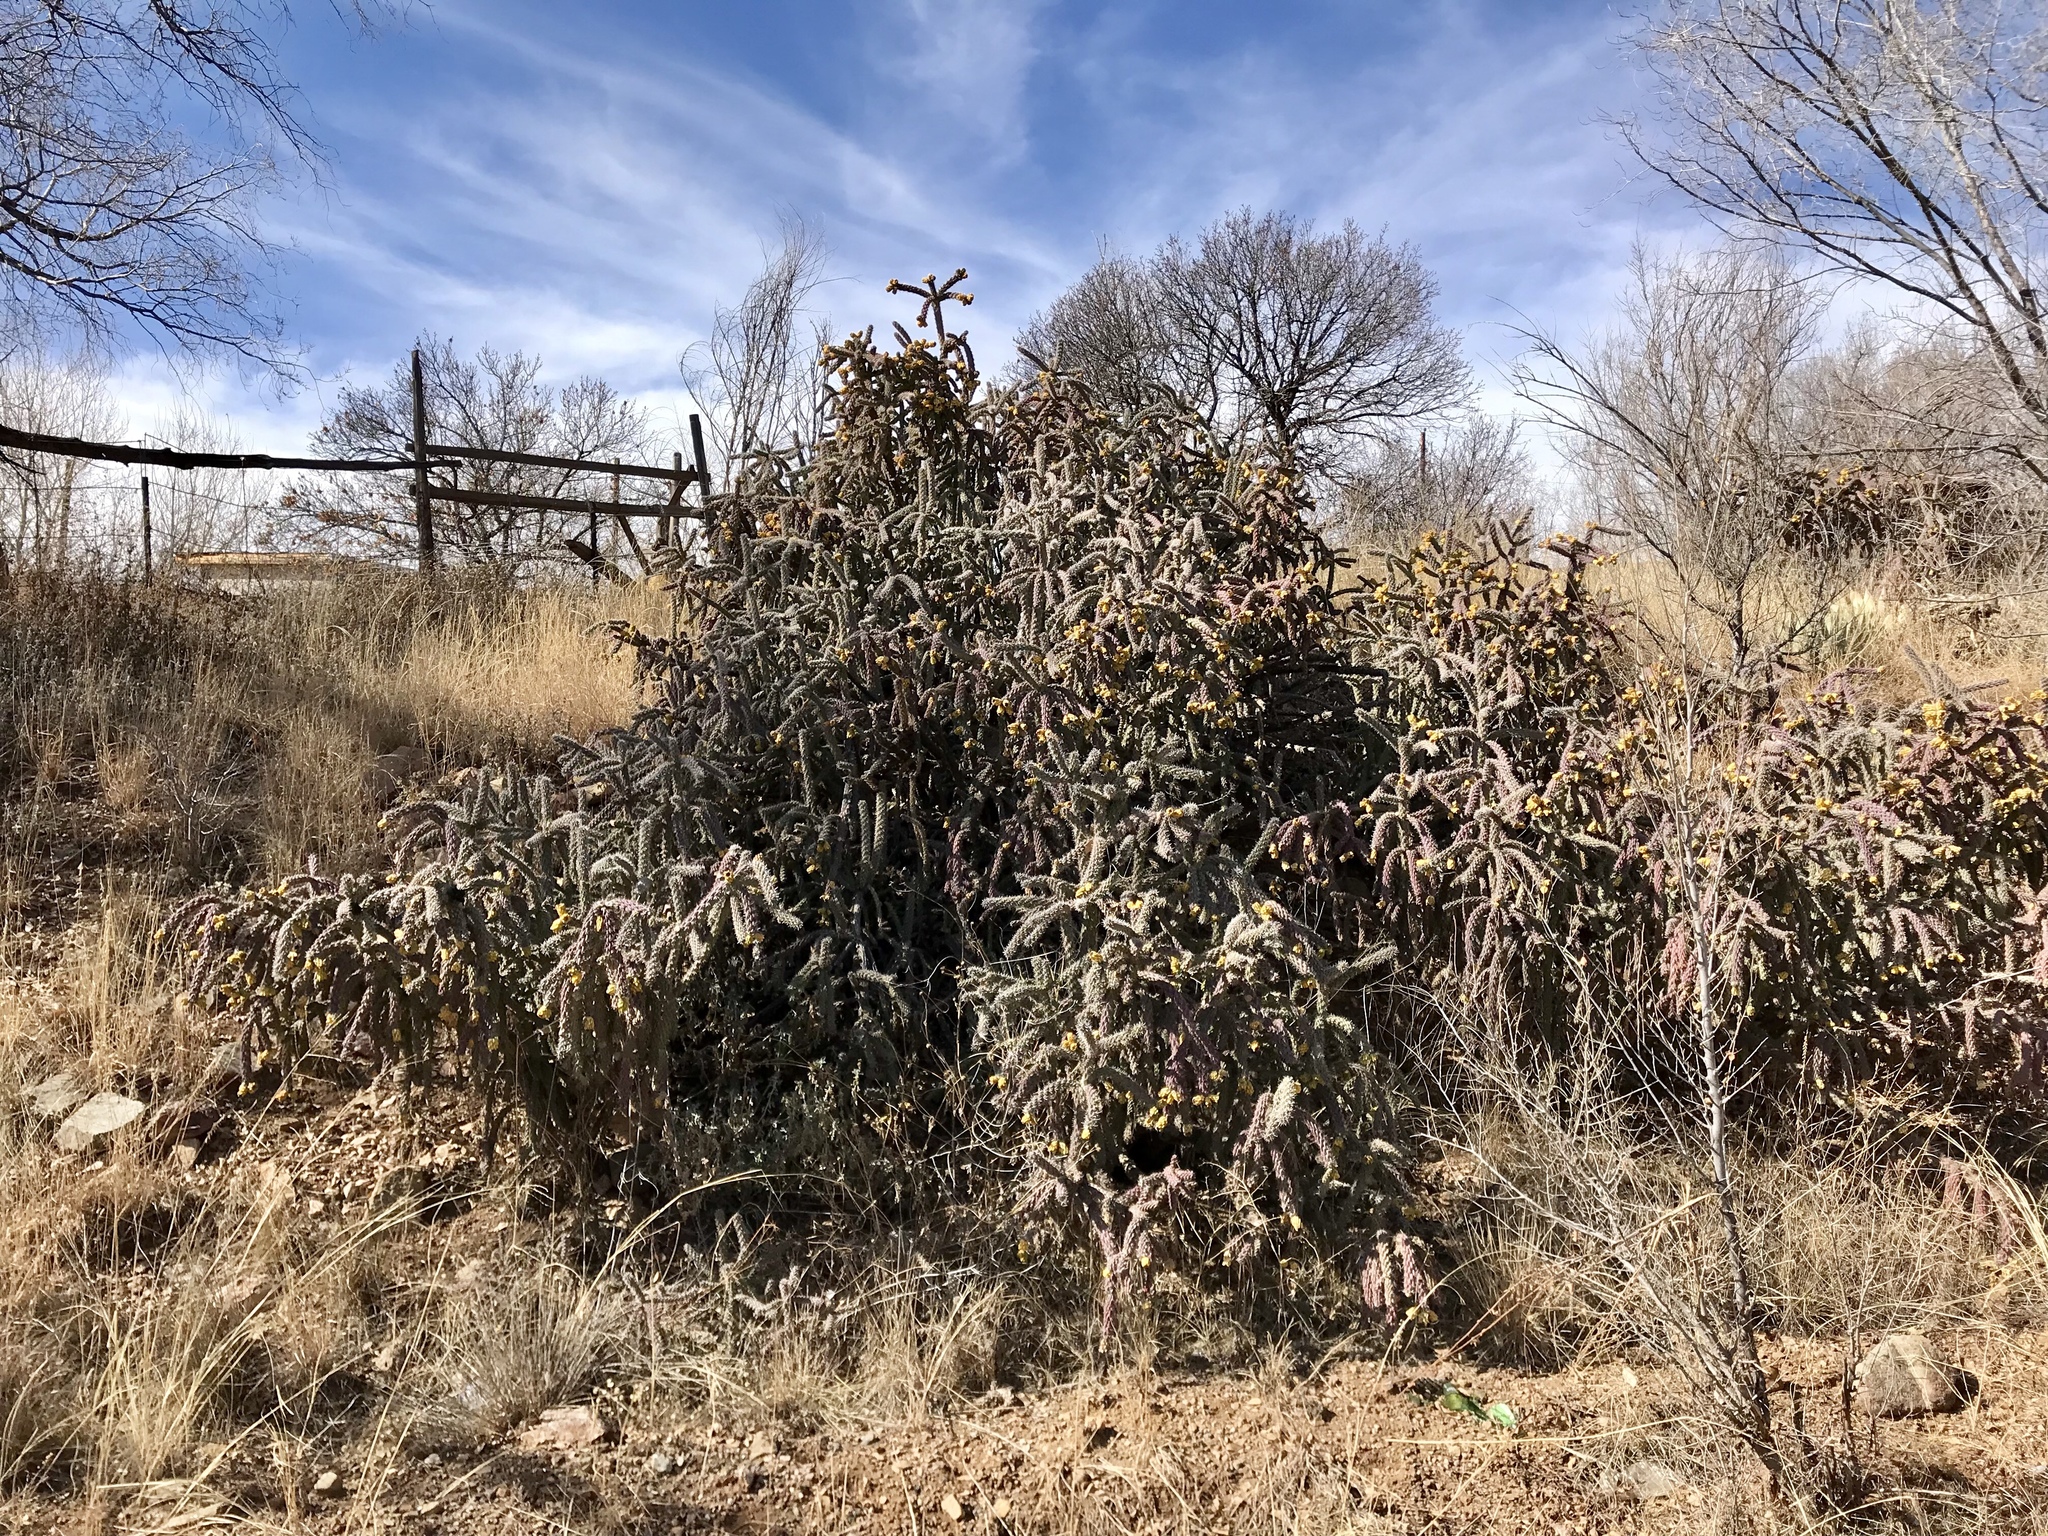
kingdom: Plantae
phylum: Tracheophyta
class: Magnoliopsida
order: Caryophyllales
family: Cactaceae
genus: Cylindropuntia
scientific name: Cylindropuntia imbricata
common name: Candelabrum cactus
